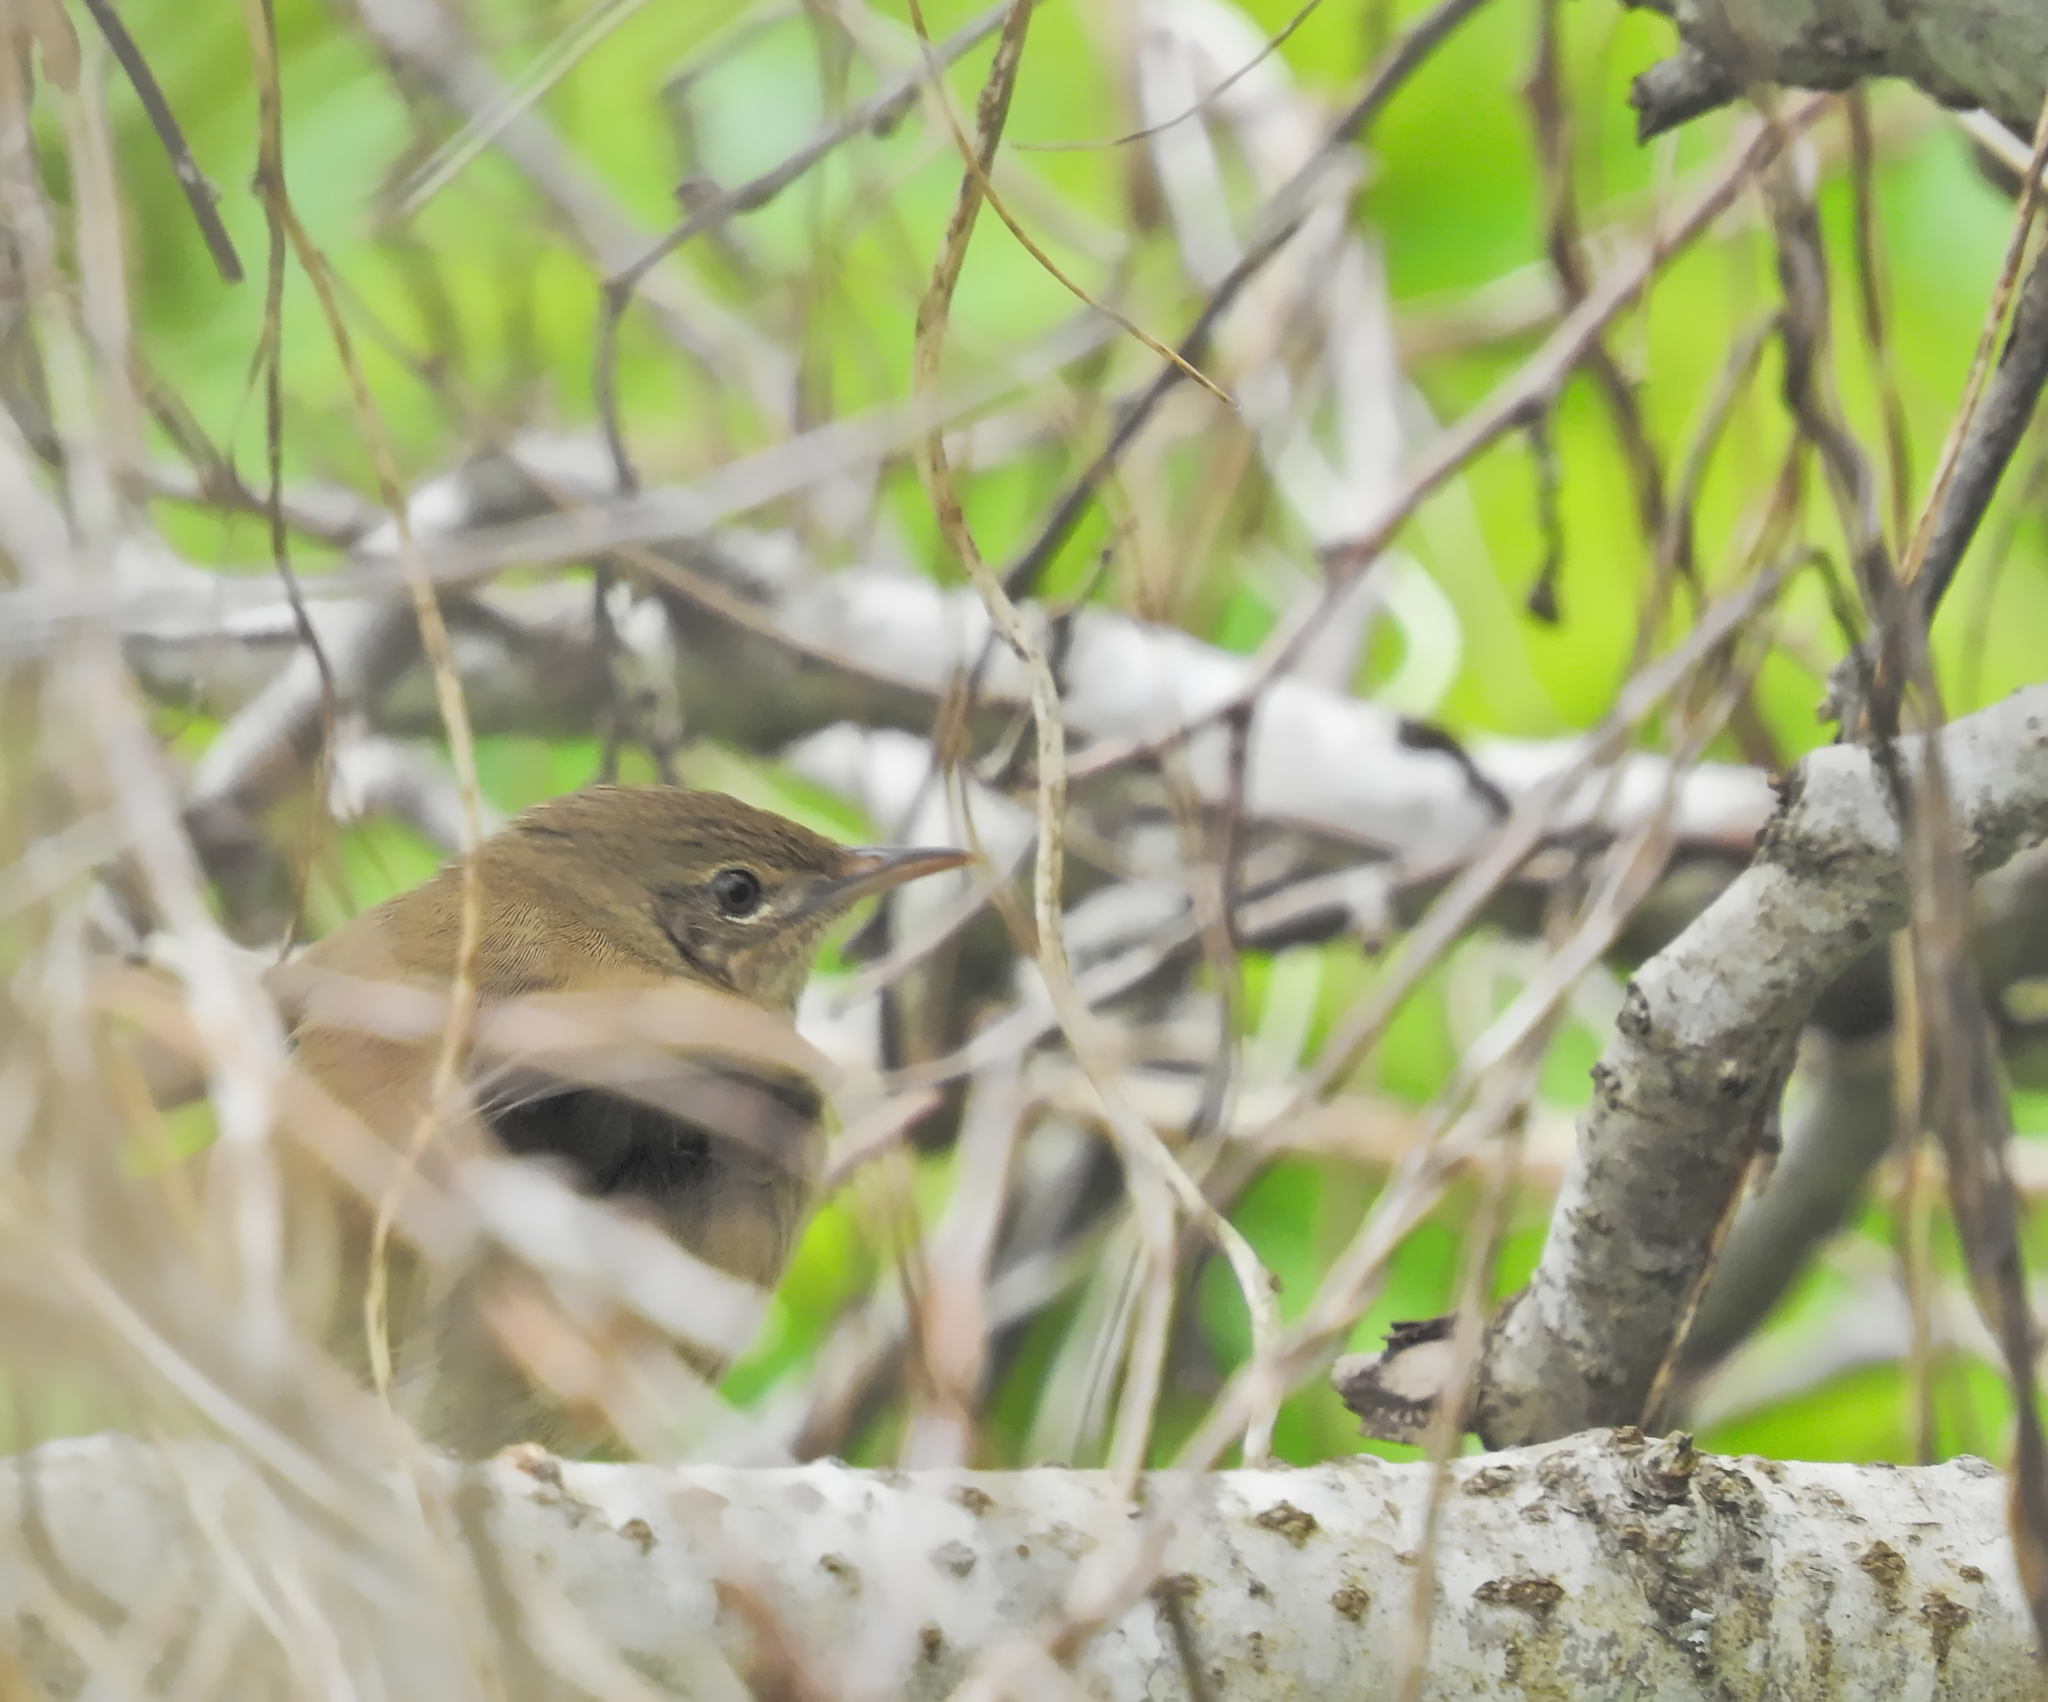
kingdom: Animalia
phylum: Chordata
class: Aves
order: Passeriformes
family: Locustellidae
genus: Locustella
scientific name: Locustella fluviatilis
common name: River warbler
